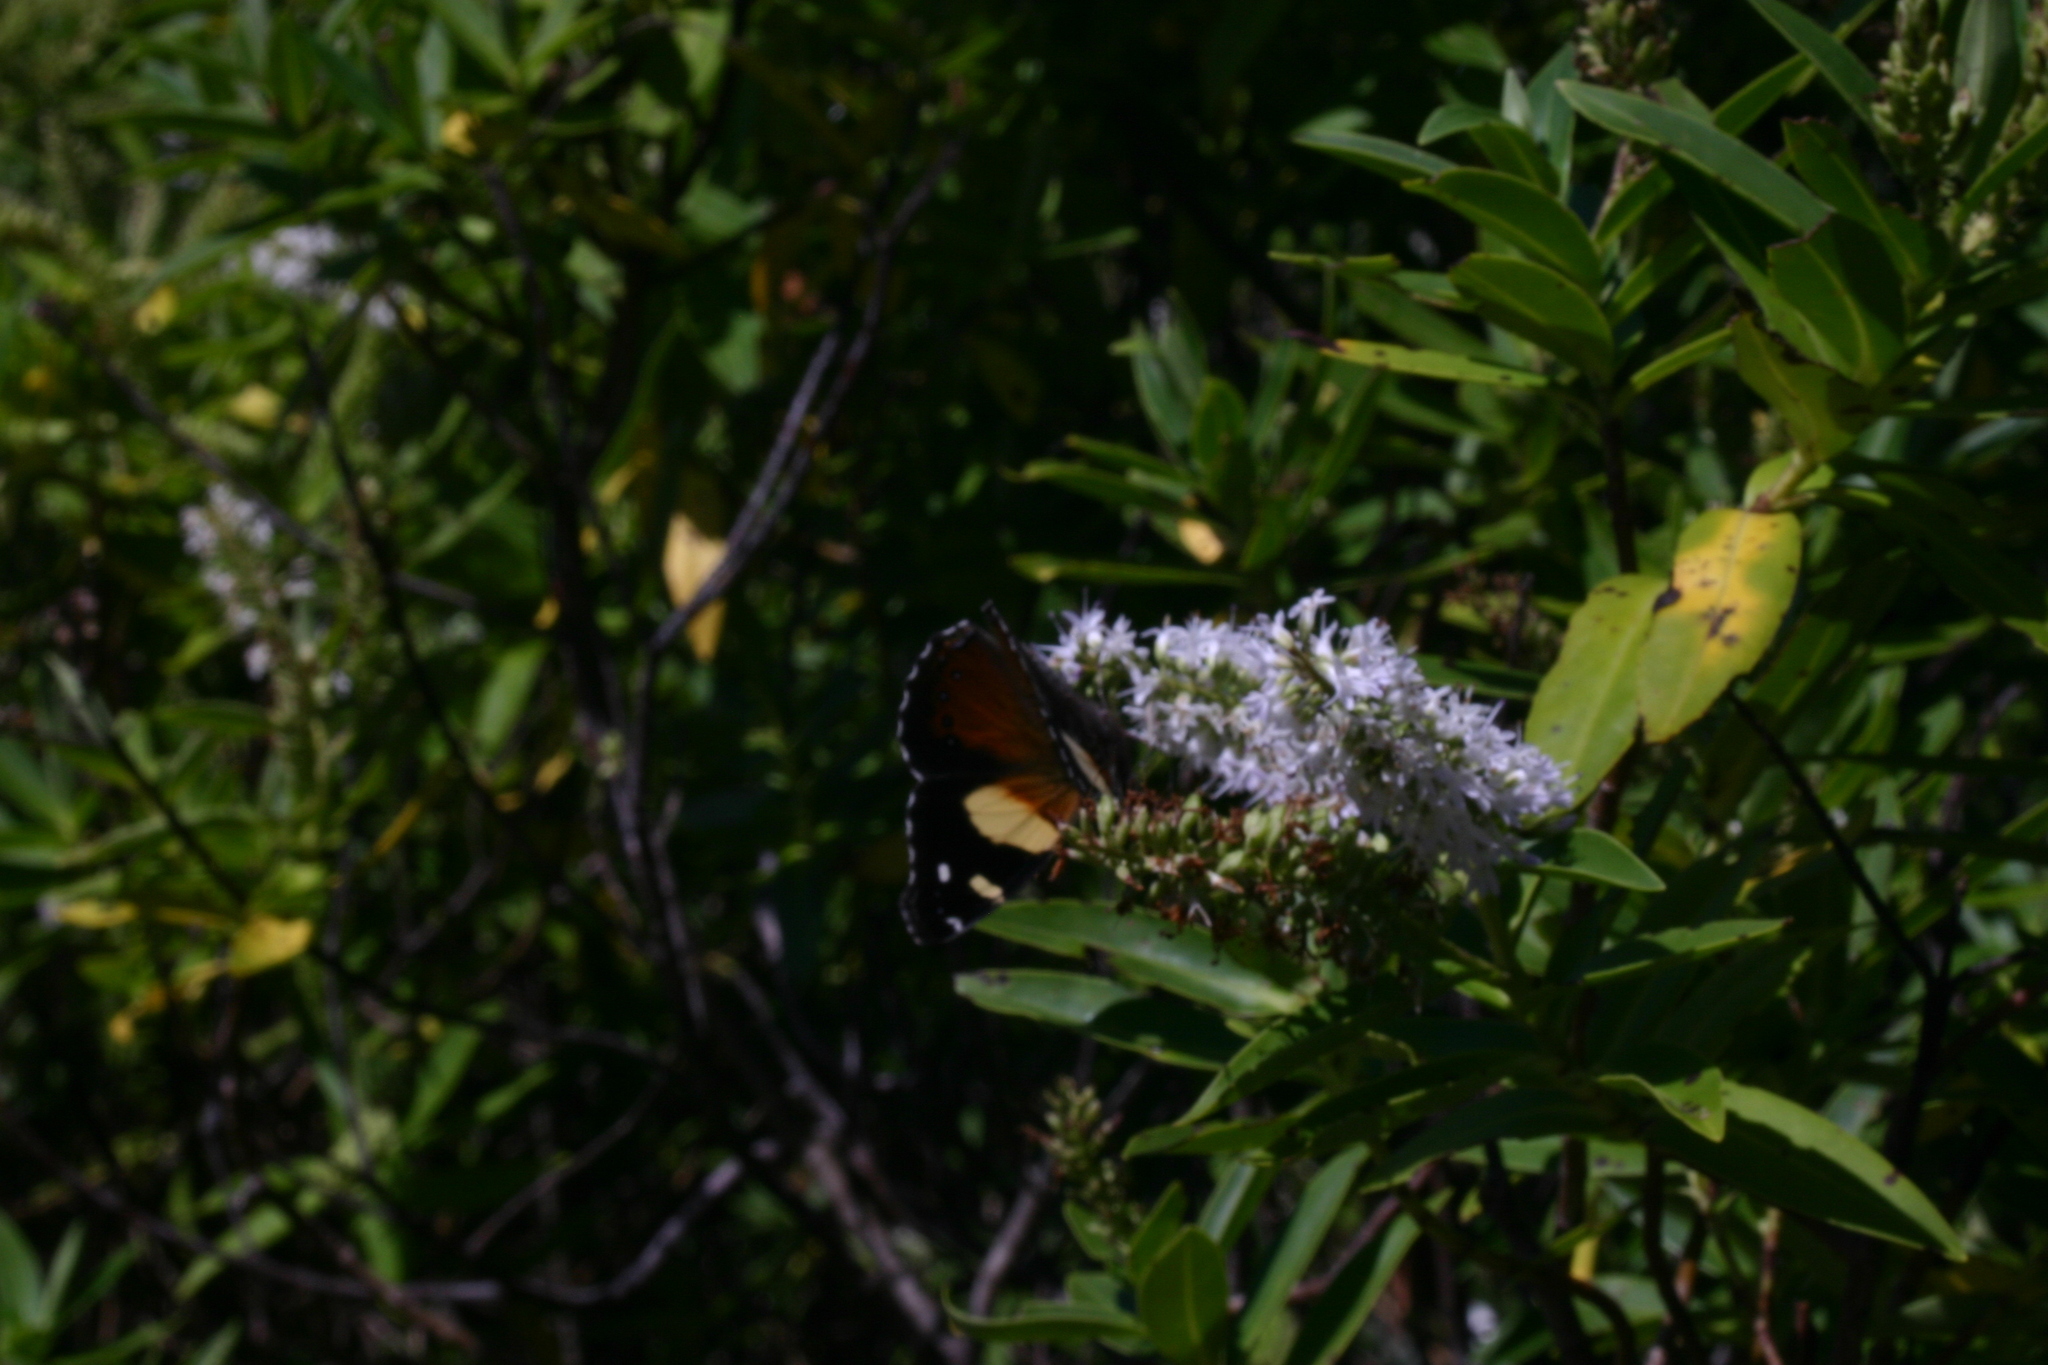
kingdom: Animalia
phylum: Arthropoda
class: Insecta
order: Lepidoptera
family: Nymphalidae
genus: Vanessa
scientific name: Vanessa itea
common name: Yellow admiral
